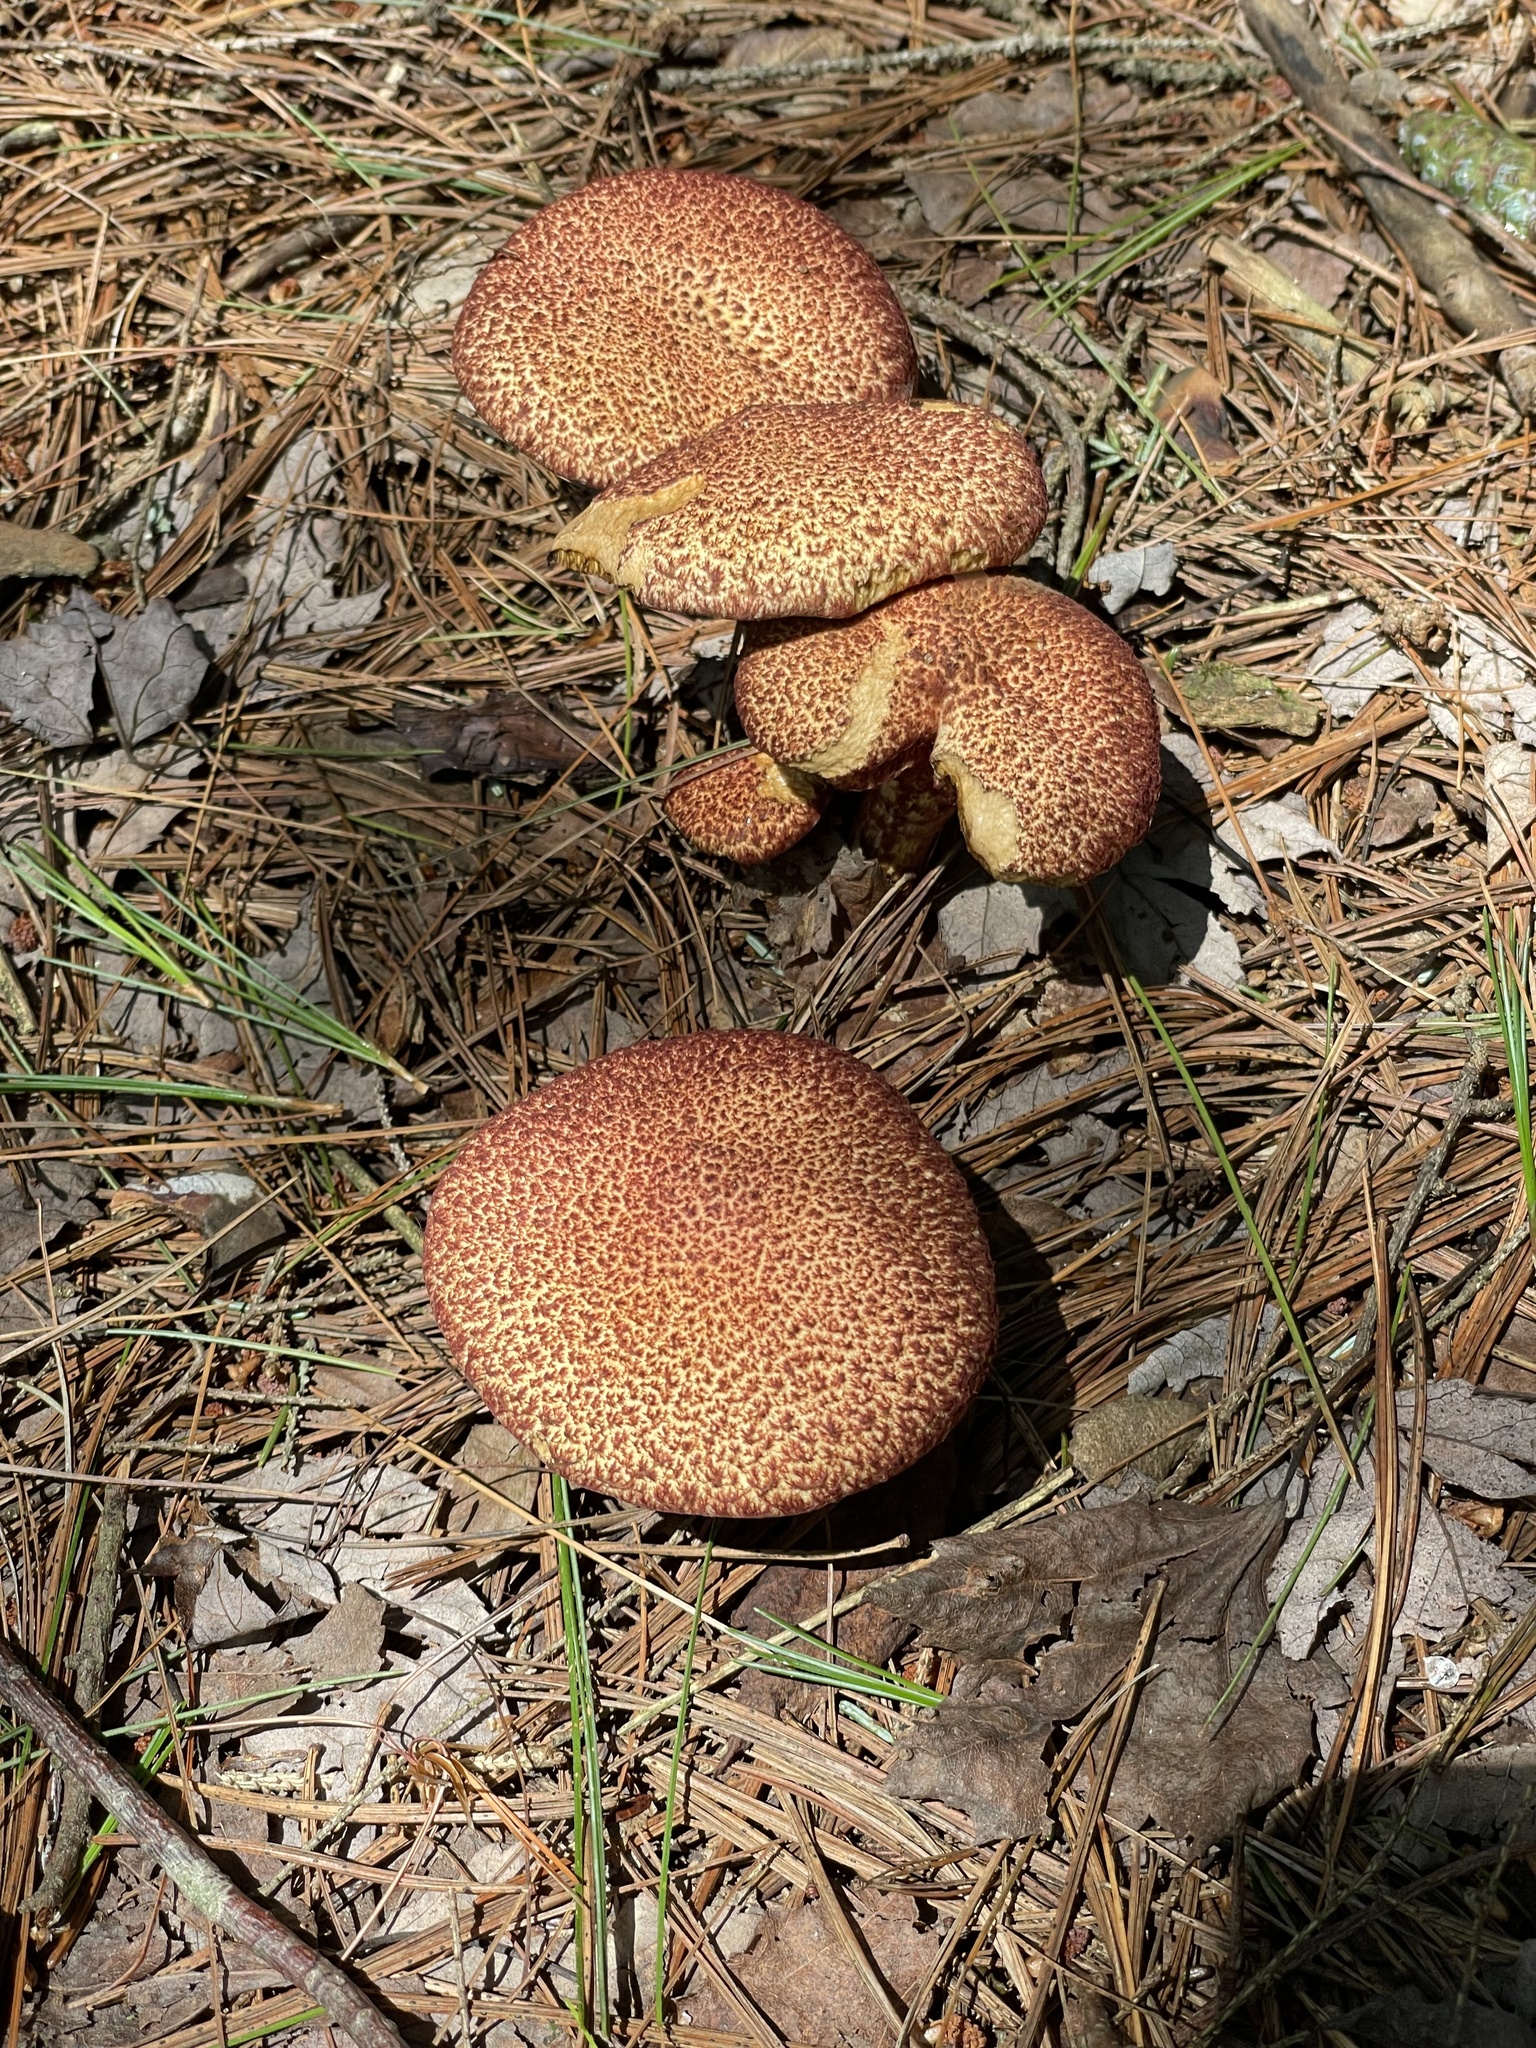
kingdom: Fungi
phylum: Basidiomycota
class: Agaricomycetes
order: Boletales
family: Suillaceae
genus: Suillus
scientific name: Suillus spraguei
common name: Painted suillus
